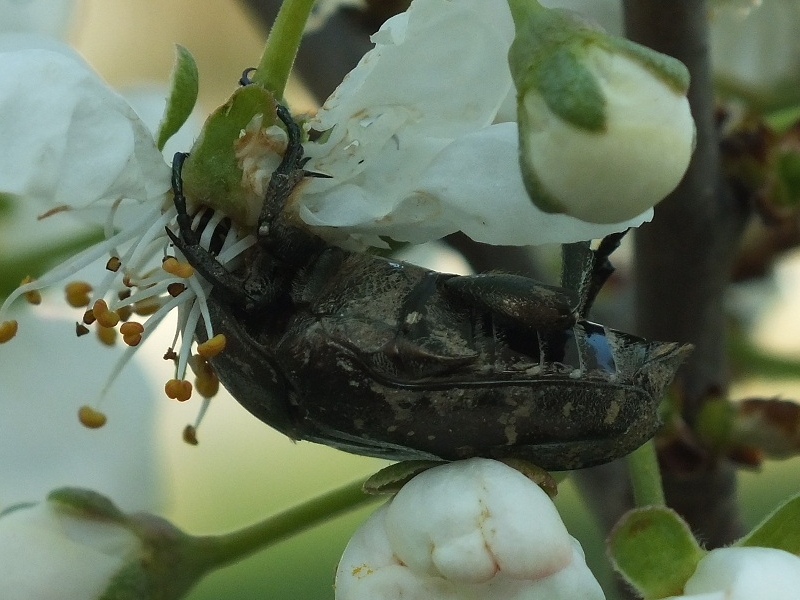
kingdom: Animalia
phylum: Arthropoda
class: Insecta
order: Coleoptera
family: Scarabaeidae
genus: Protaetia
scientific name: Protaetia cuprea
